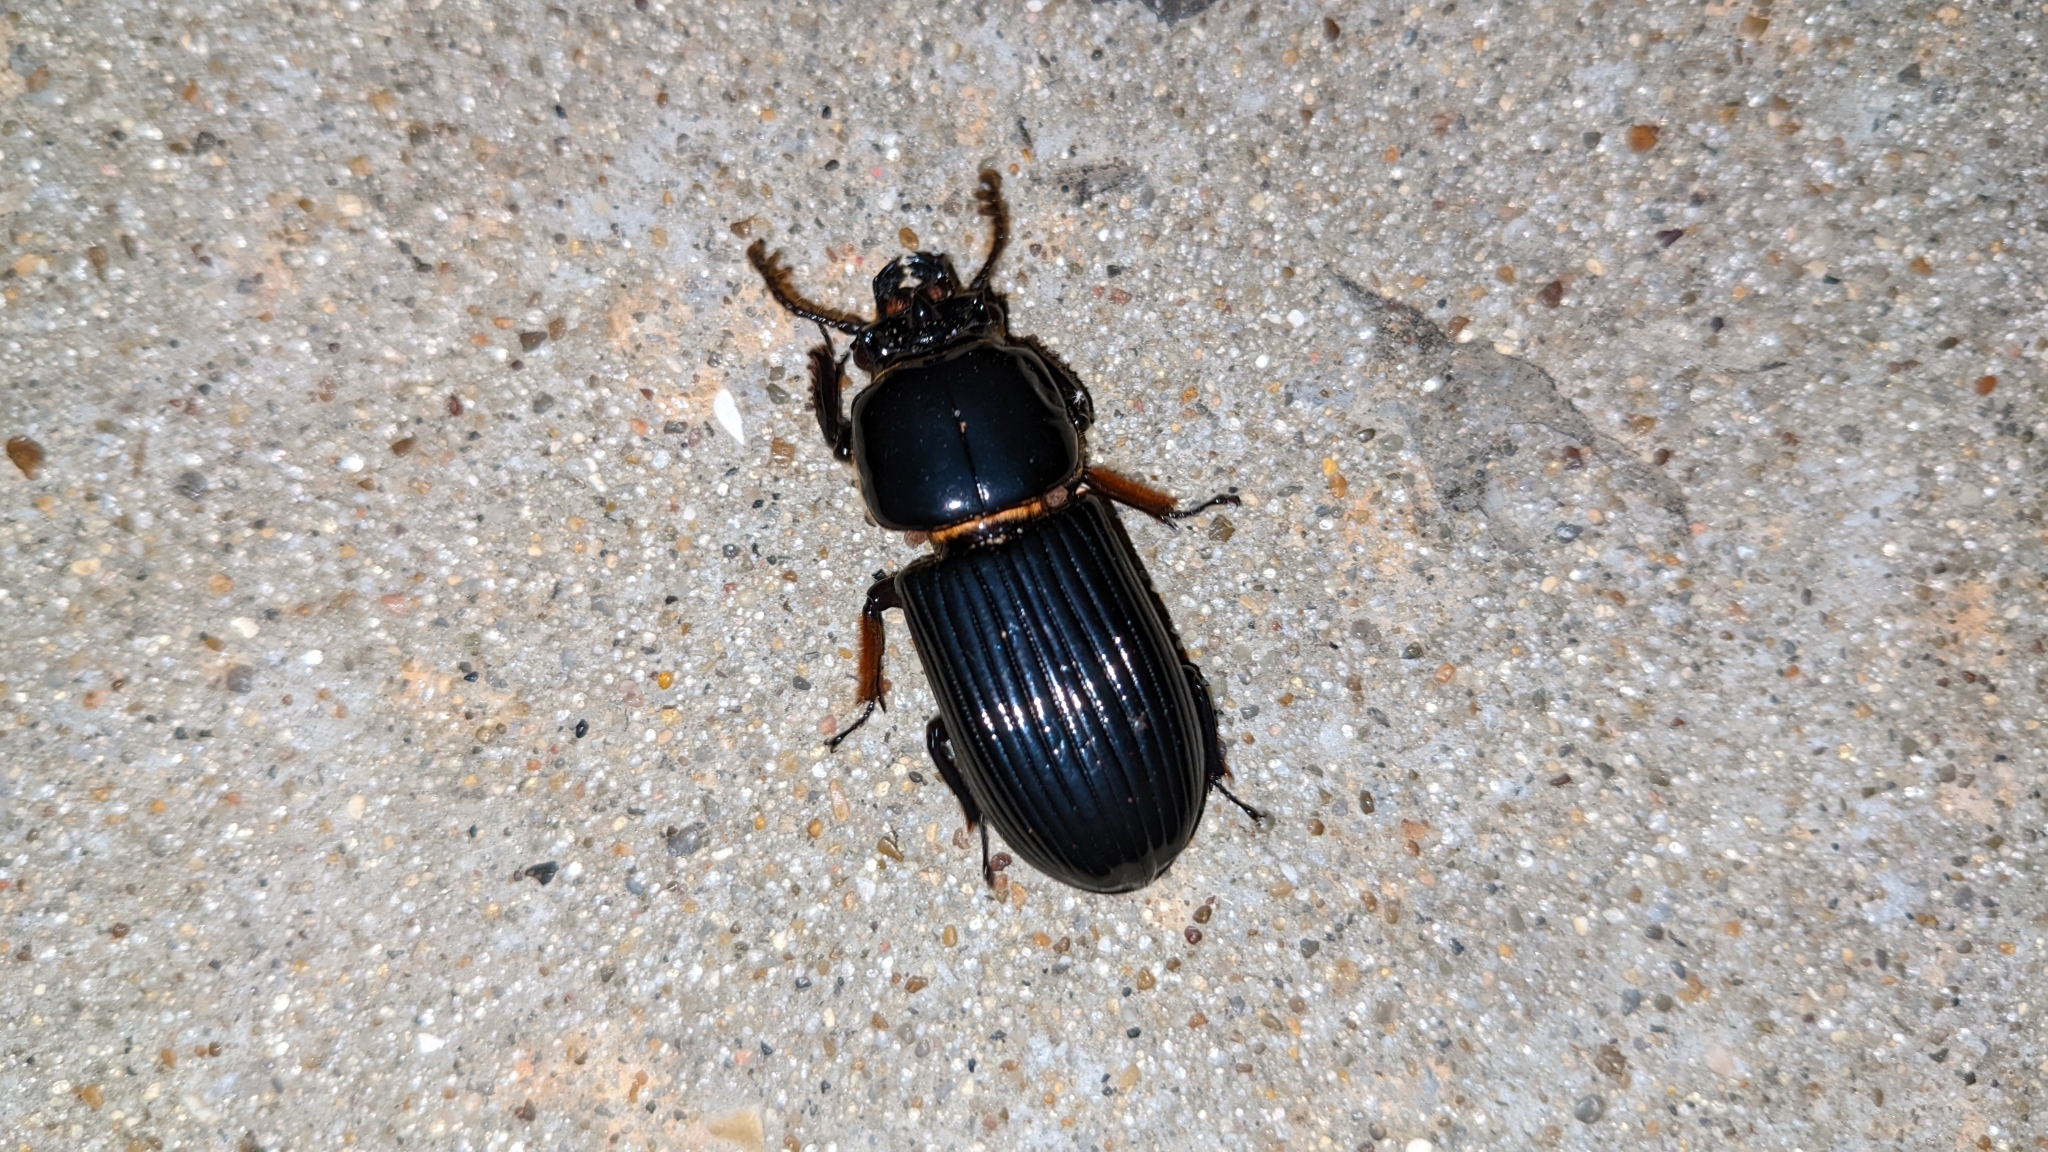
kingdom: Animalia
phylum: Arthropoda
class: Insecta
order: Coleoptera
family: Passalidae
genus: Odontotaenius
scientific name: Odontotaenius disjunctus
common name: Patent leather beetle
